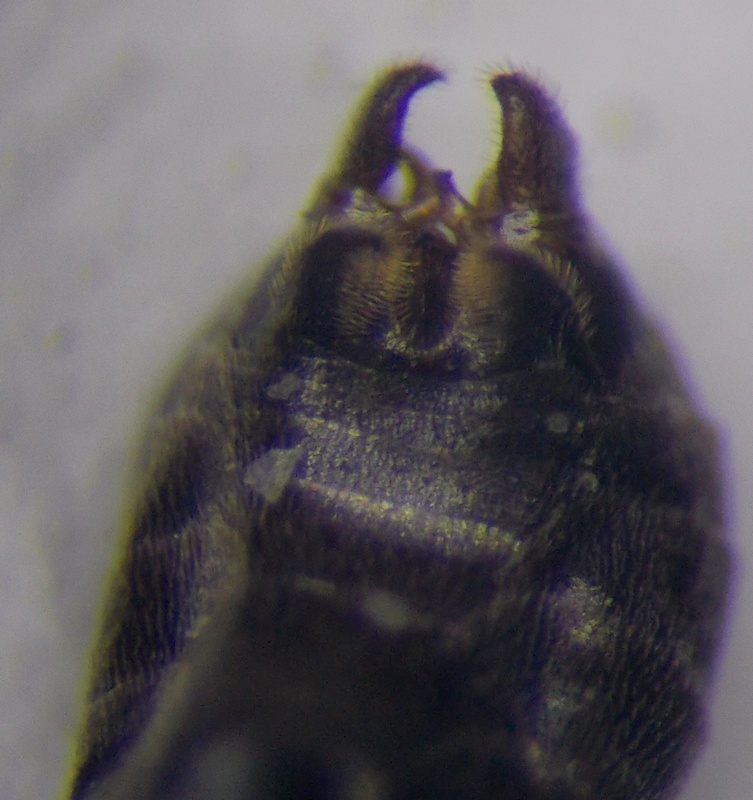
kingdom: Animalia
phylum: Arthropoda
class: Insecta
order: Hymenoptera
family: Formicidae
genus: Tapinoma
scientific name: Tapinoma erraticum
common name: Erratic ant
